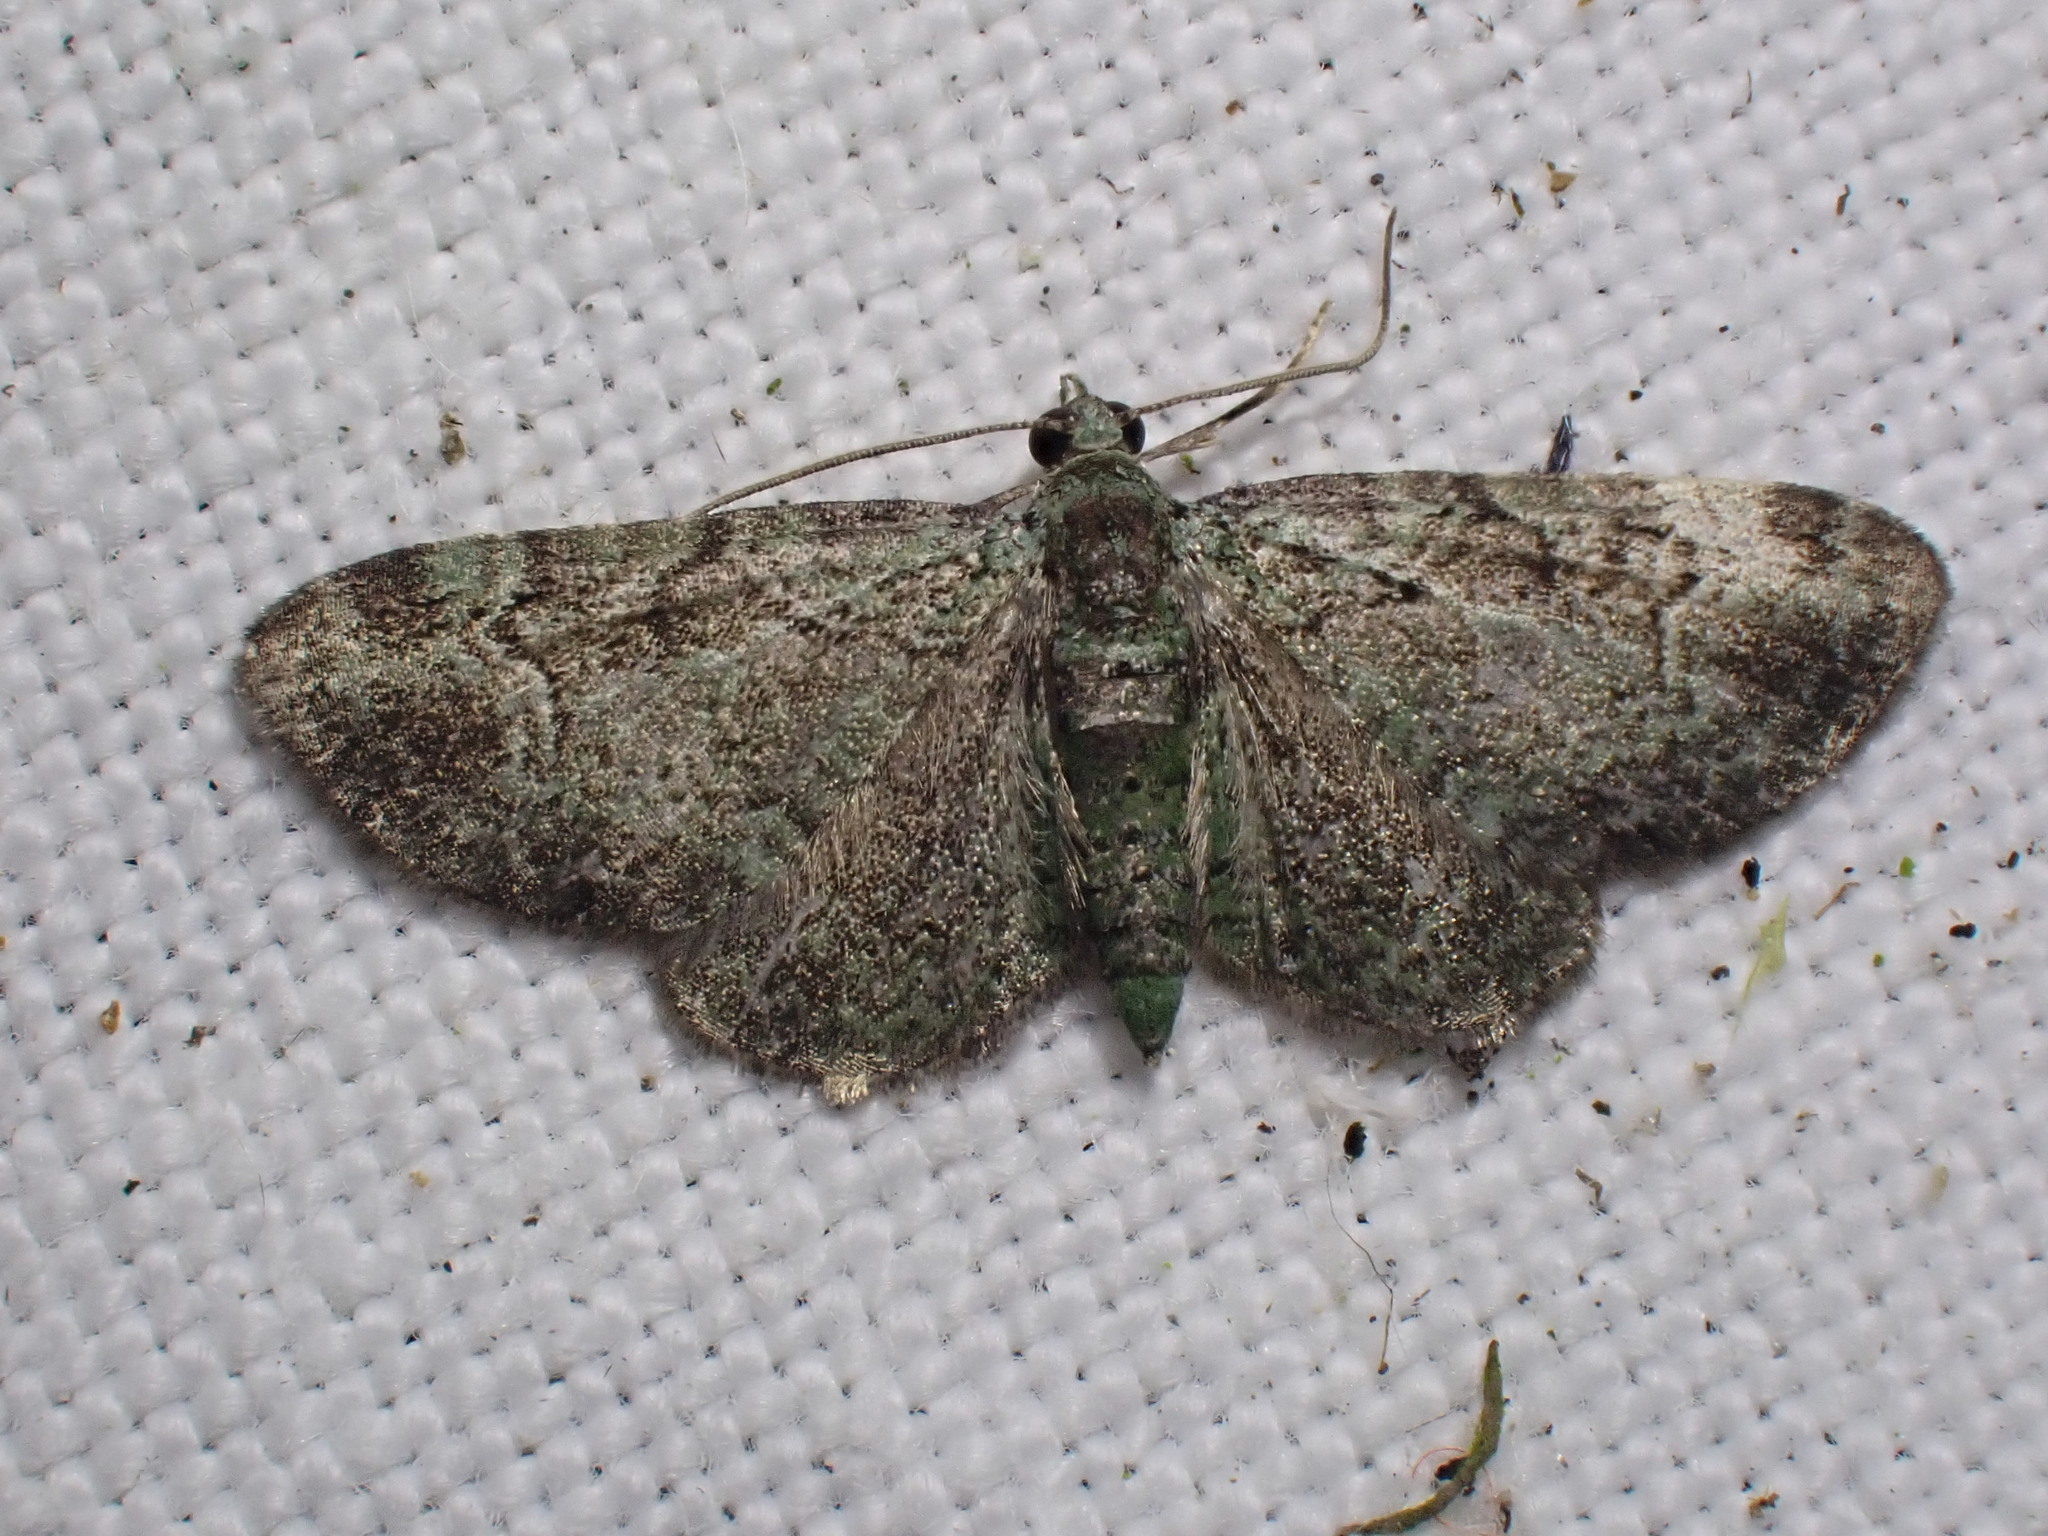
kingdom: Animalia
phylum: Arthropoda
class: Insecta
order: Lepidoptera
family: Geometridae
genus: Pasiphila
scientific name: Pasiphila rectangulata
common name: Green pug
